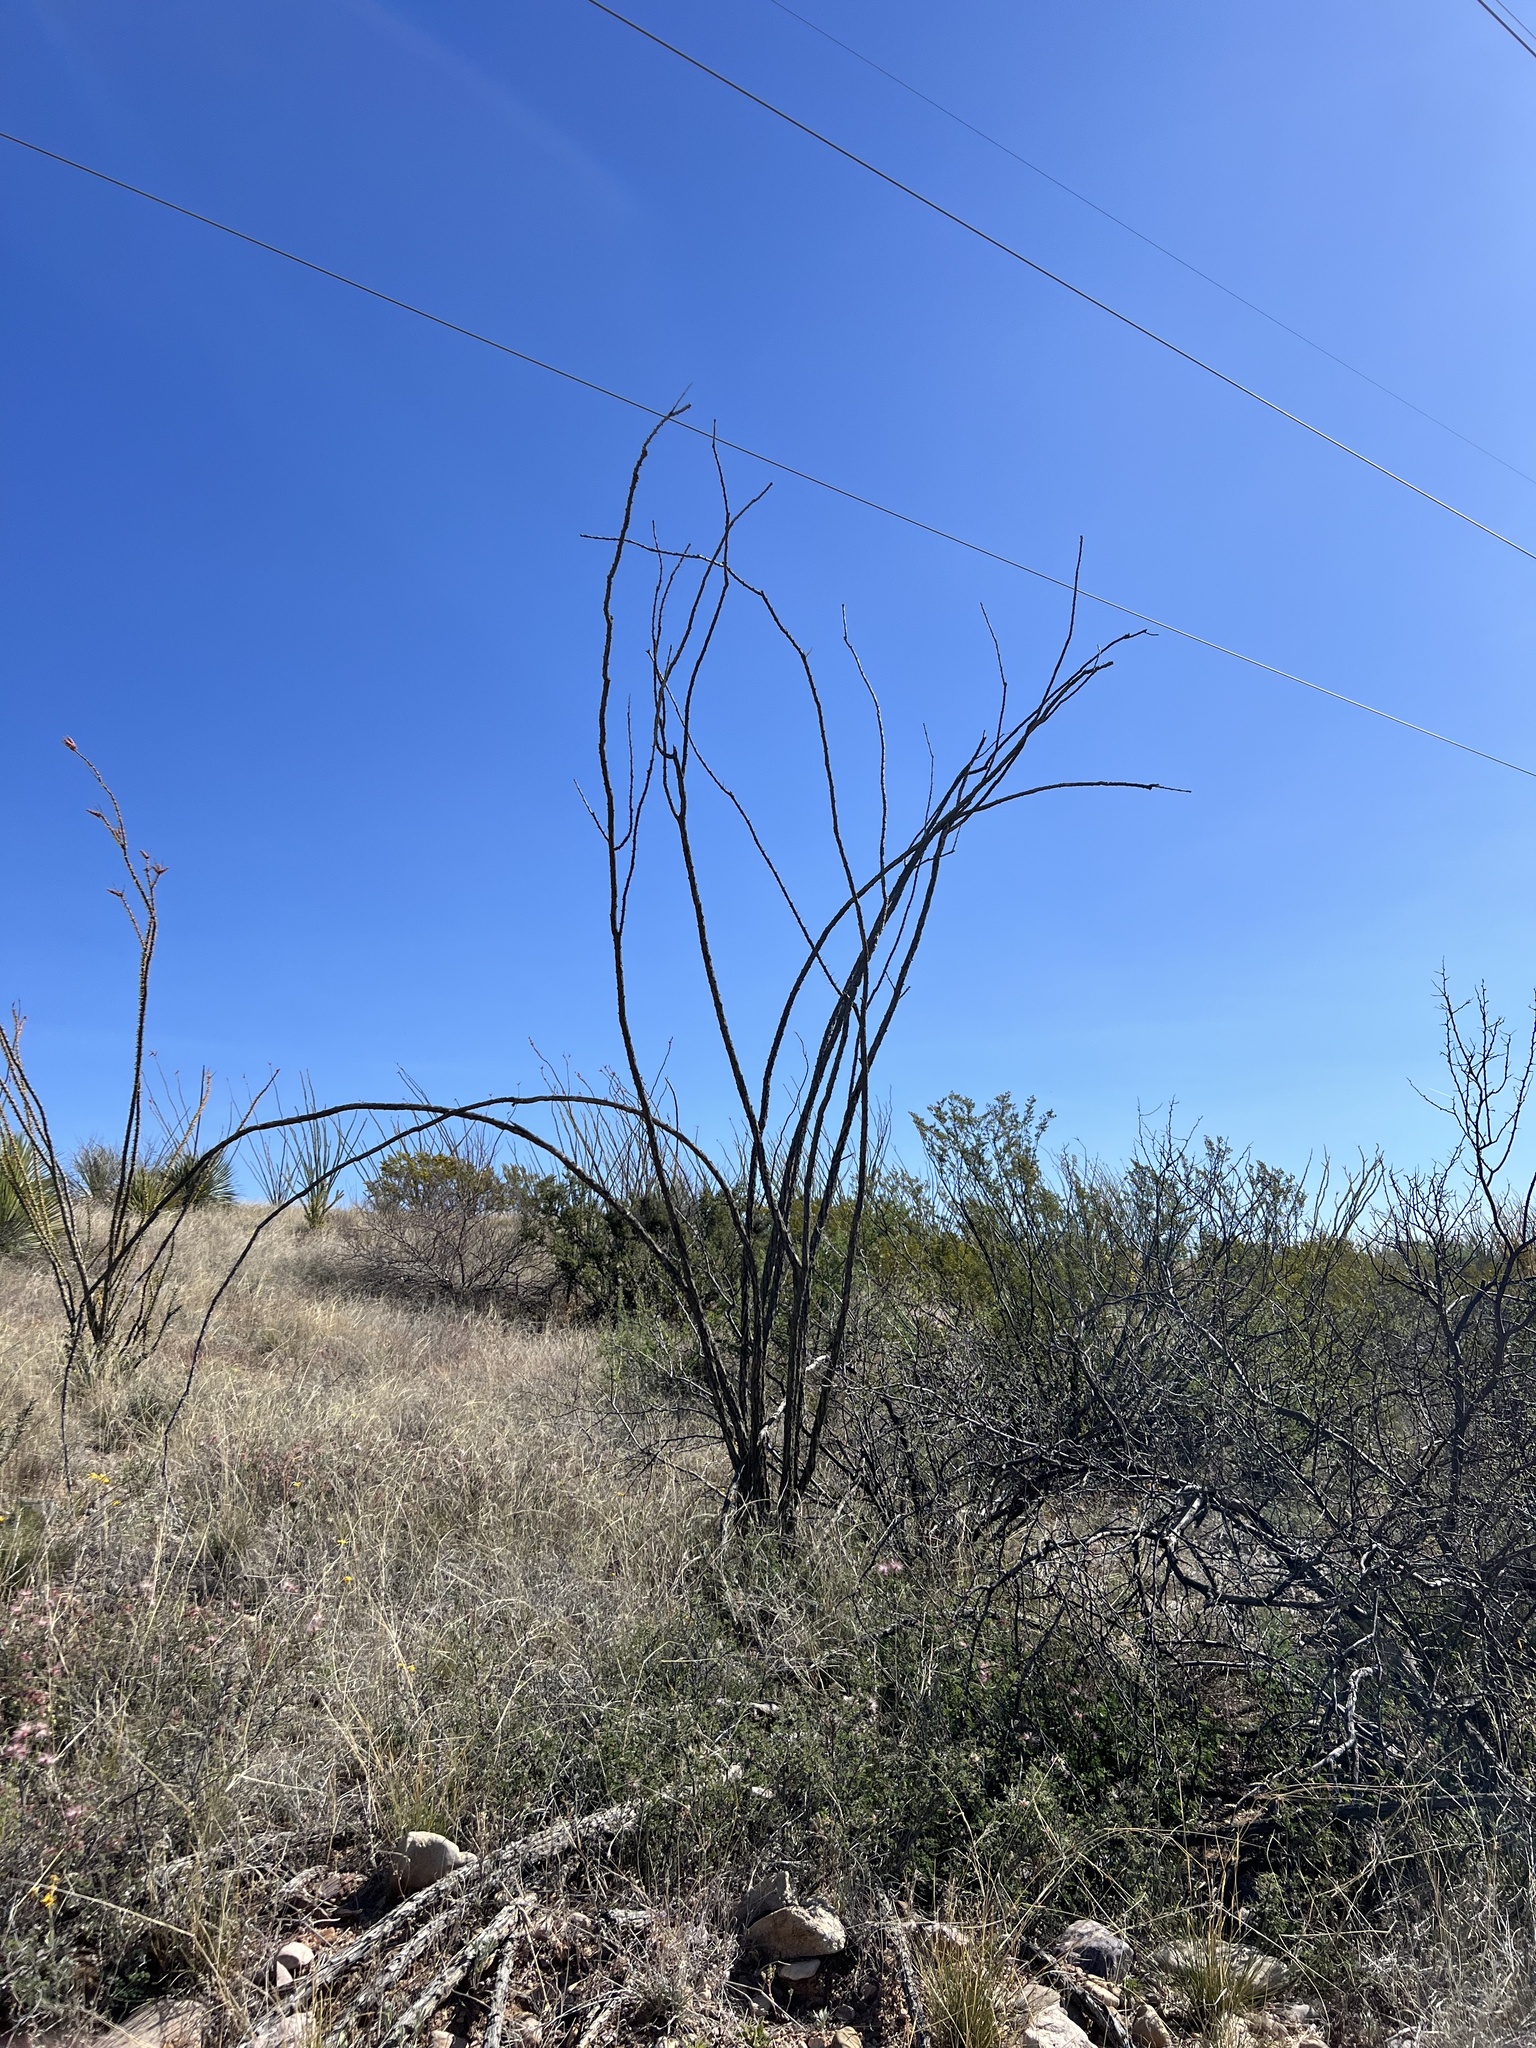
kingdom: Plantae
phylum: Tracheophyta
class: Magnoliopsida
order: Ericales
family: Fouquieriaceae
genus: Fouquieria
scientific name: Fouquieria splendens
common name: Vine-cactus
